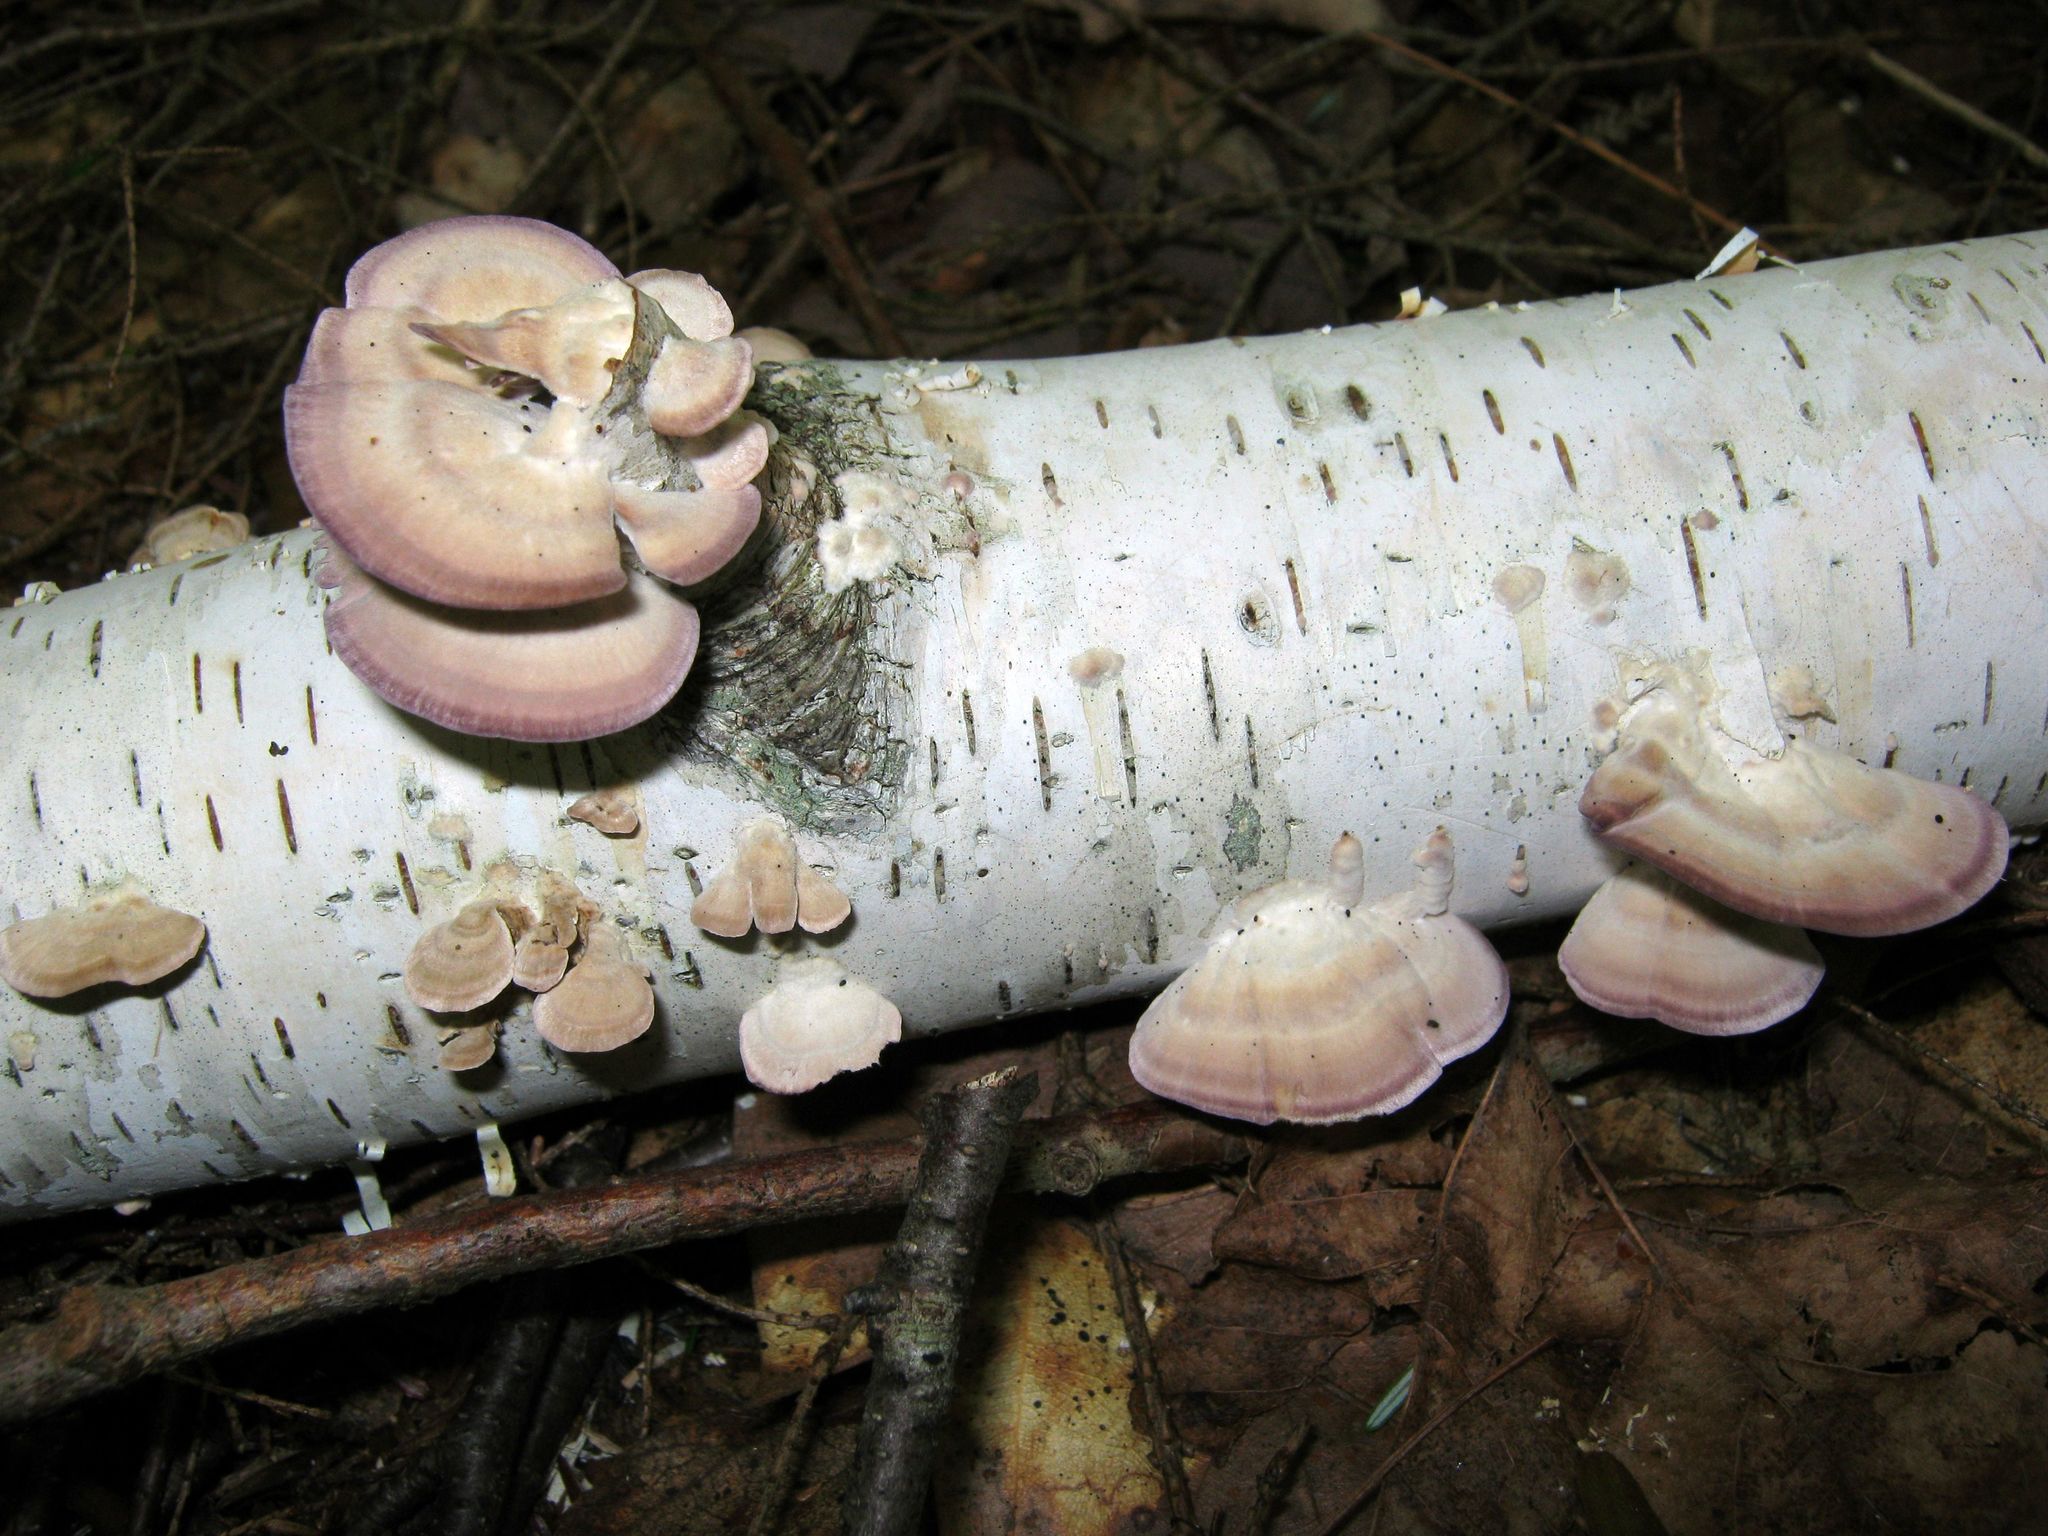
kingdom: Fungi
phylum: Basidiomycota
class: Agaricomycetes
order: Hymenochaetales
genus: Trichaptum
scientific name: Trichaptum biforme
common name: Violet-toothed polypore
